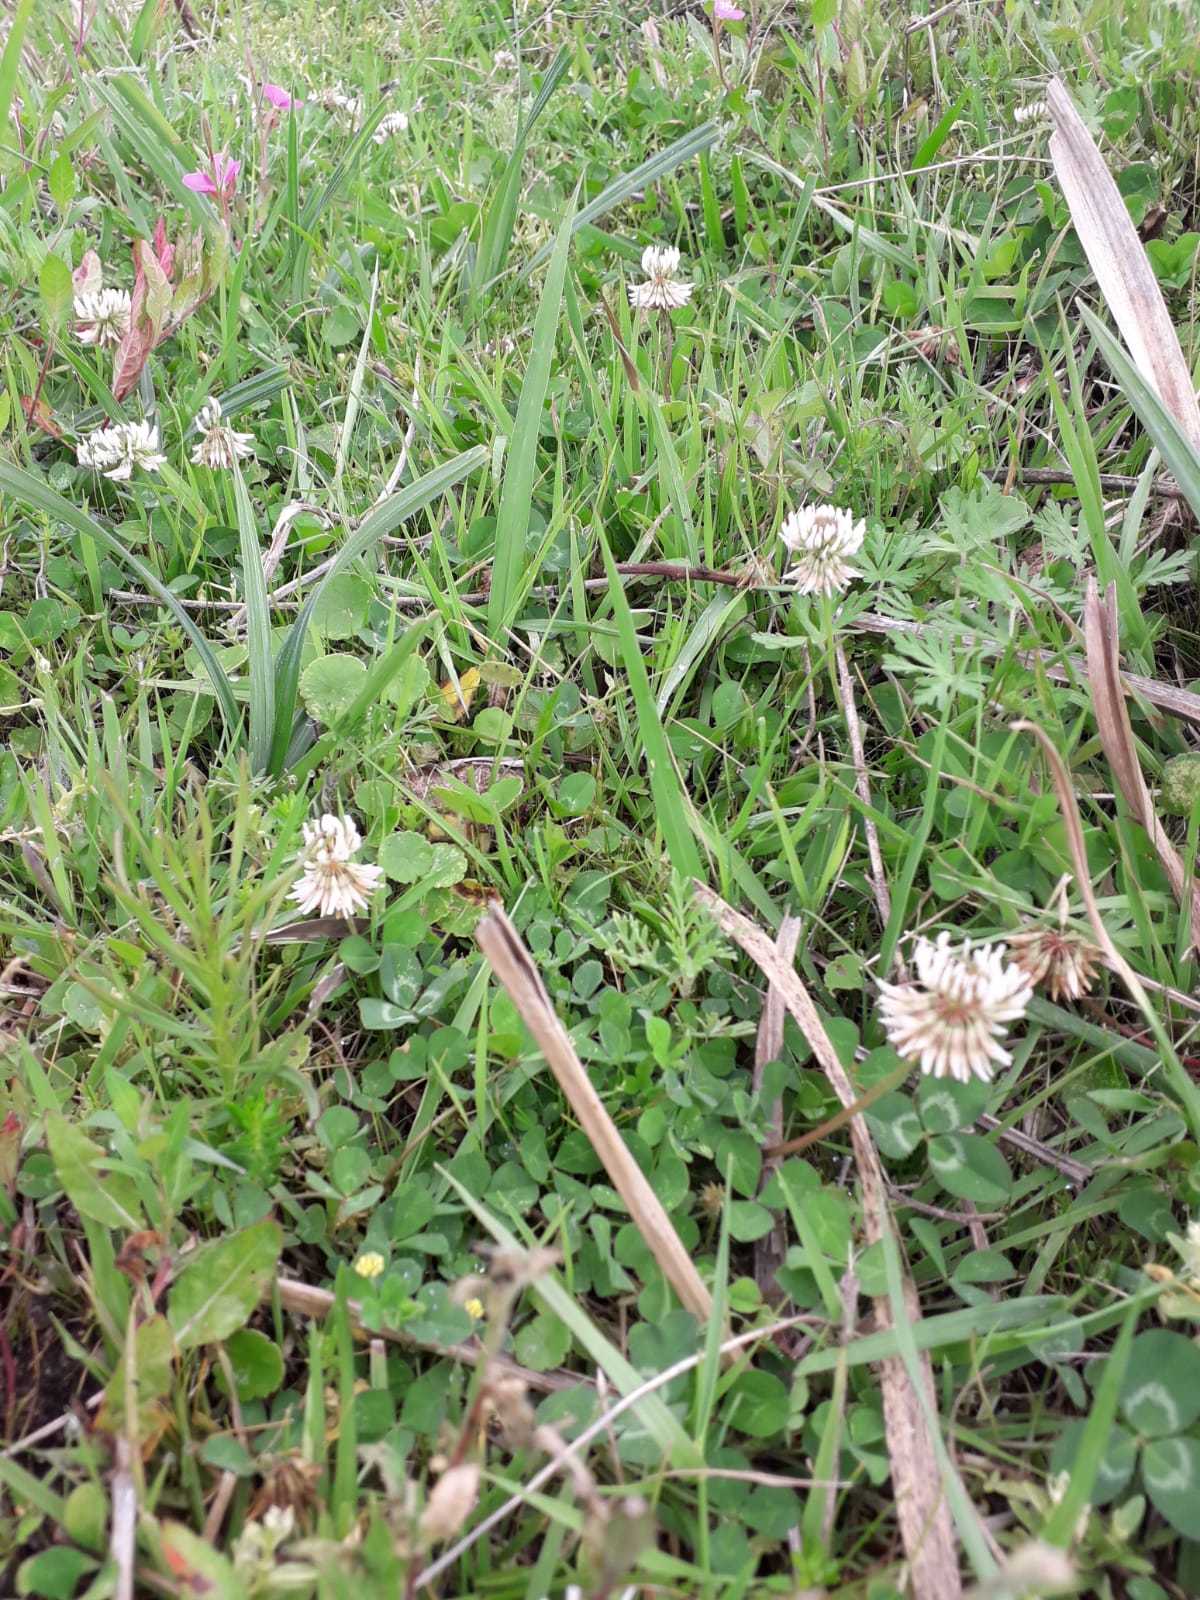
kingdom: Plantae
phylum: Tracheophyta
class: Magnoliopsida
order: Fabales
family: Fabaceae
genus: Trifolium
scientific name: Trifolium repens
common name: White clover
